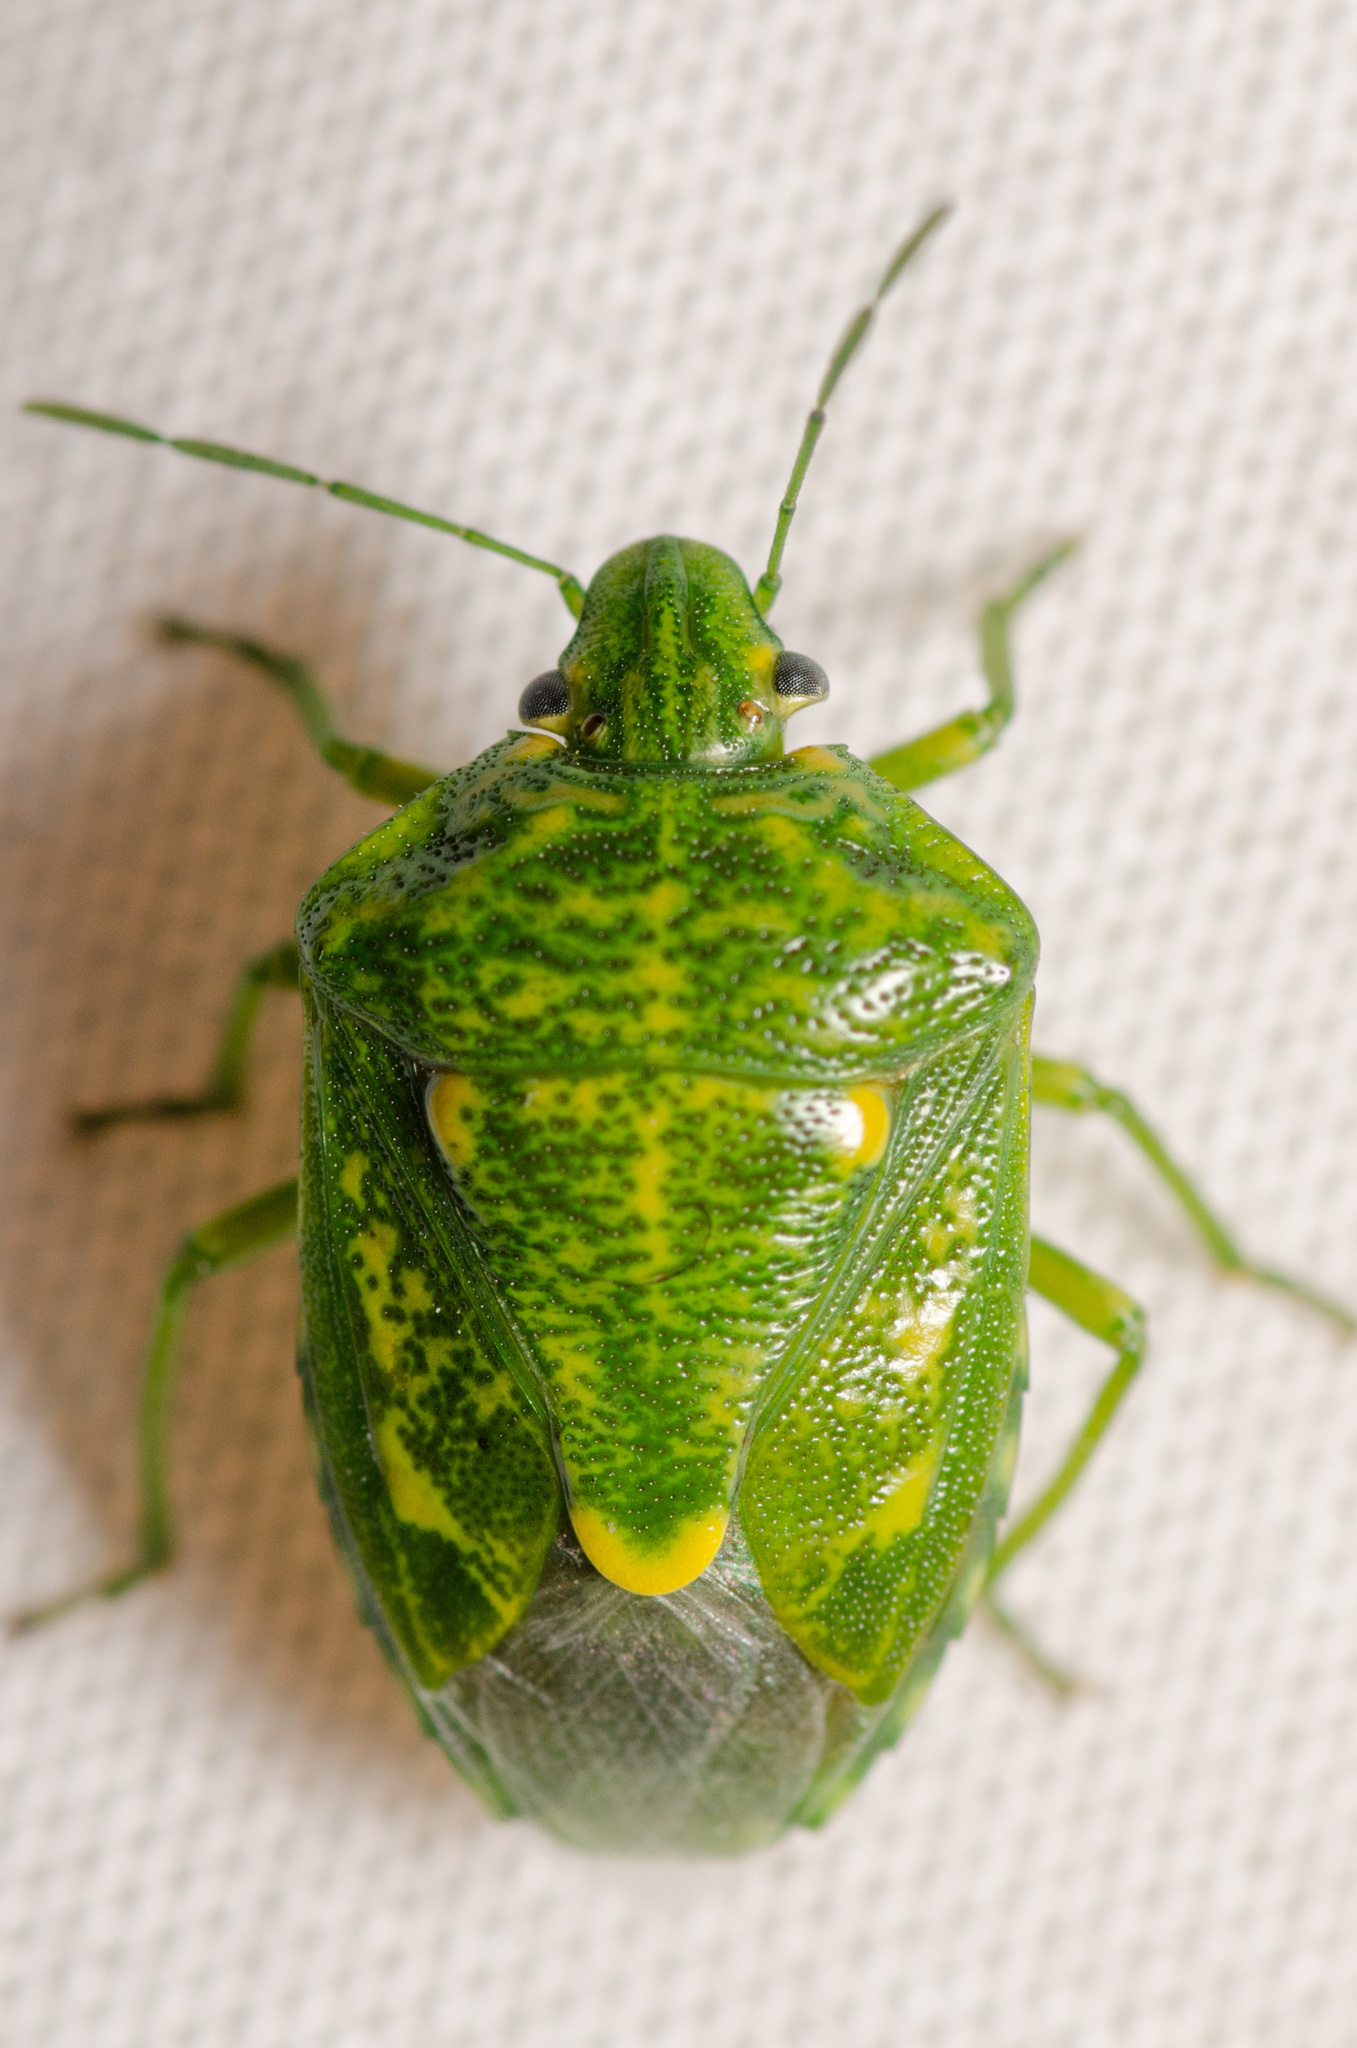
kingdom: Animalia
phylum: Arthropoda
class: Insecta
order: Hemiptera
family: Pentatomidae
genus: Banasa
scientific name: Banasa euchlora
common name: Cedar berry bug
